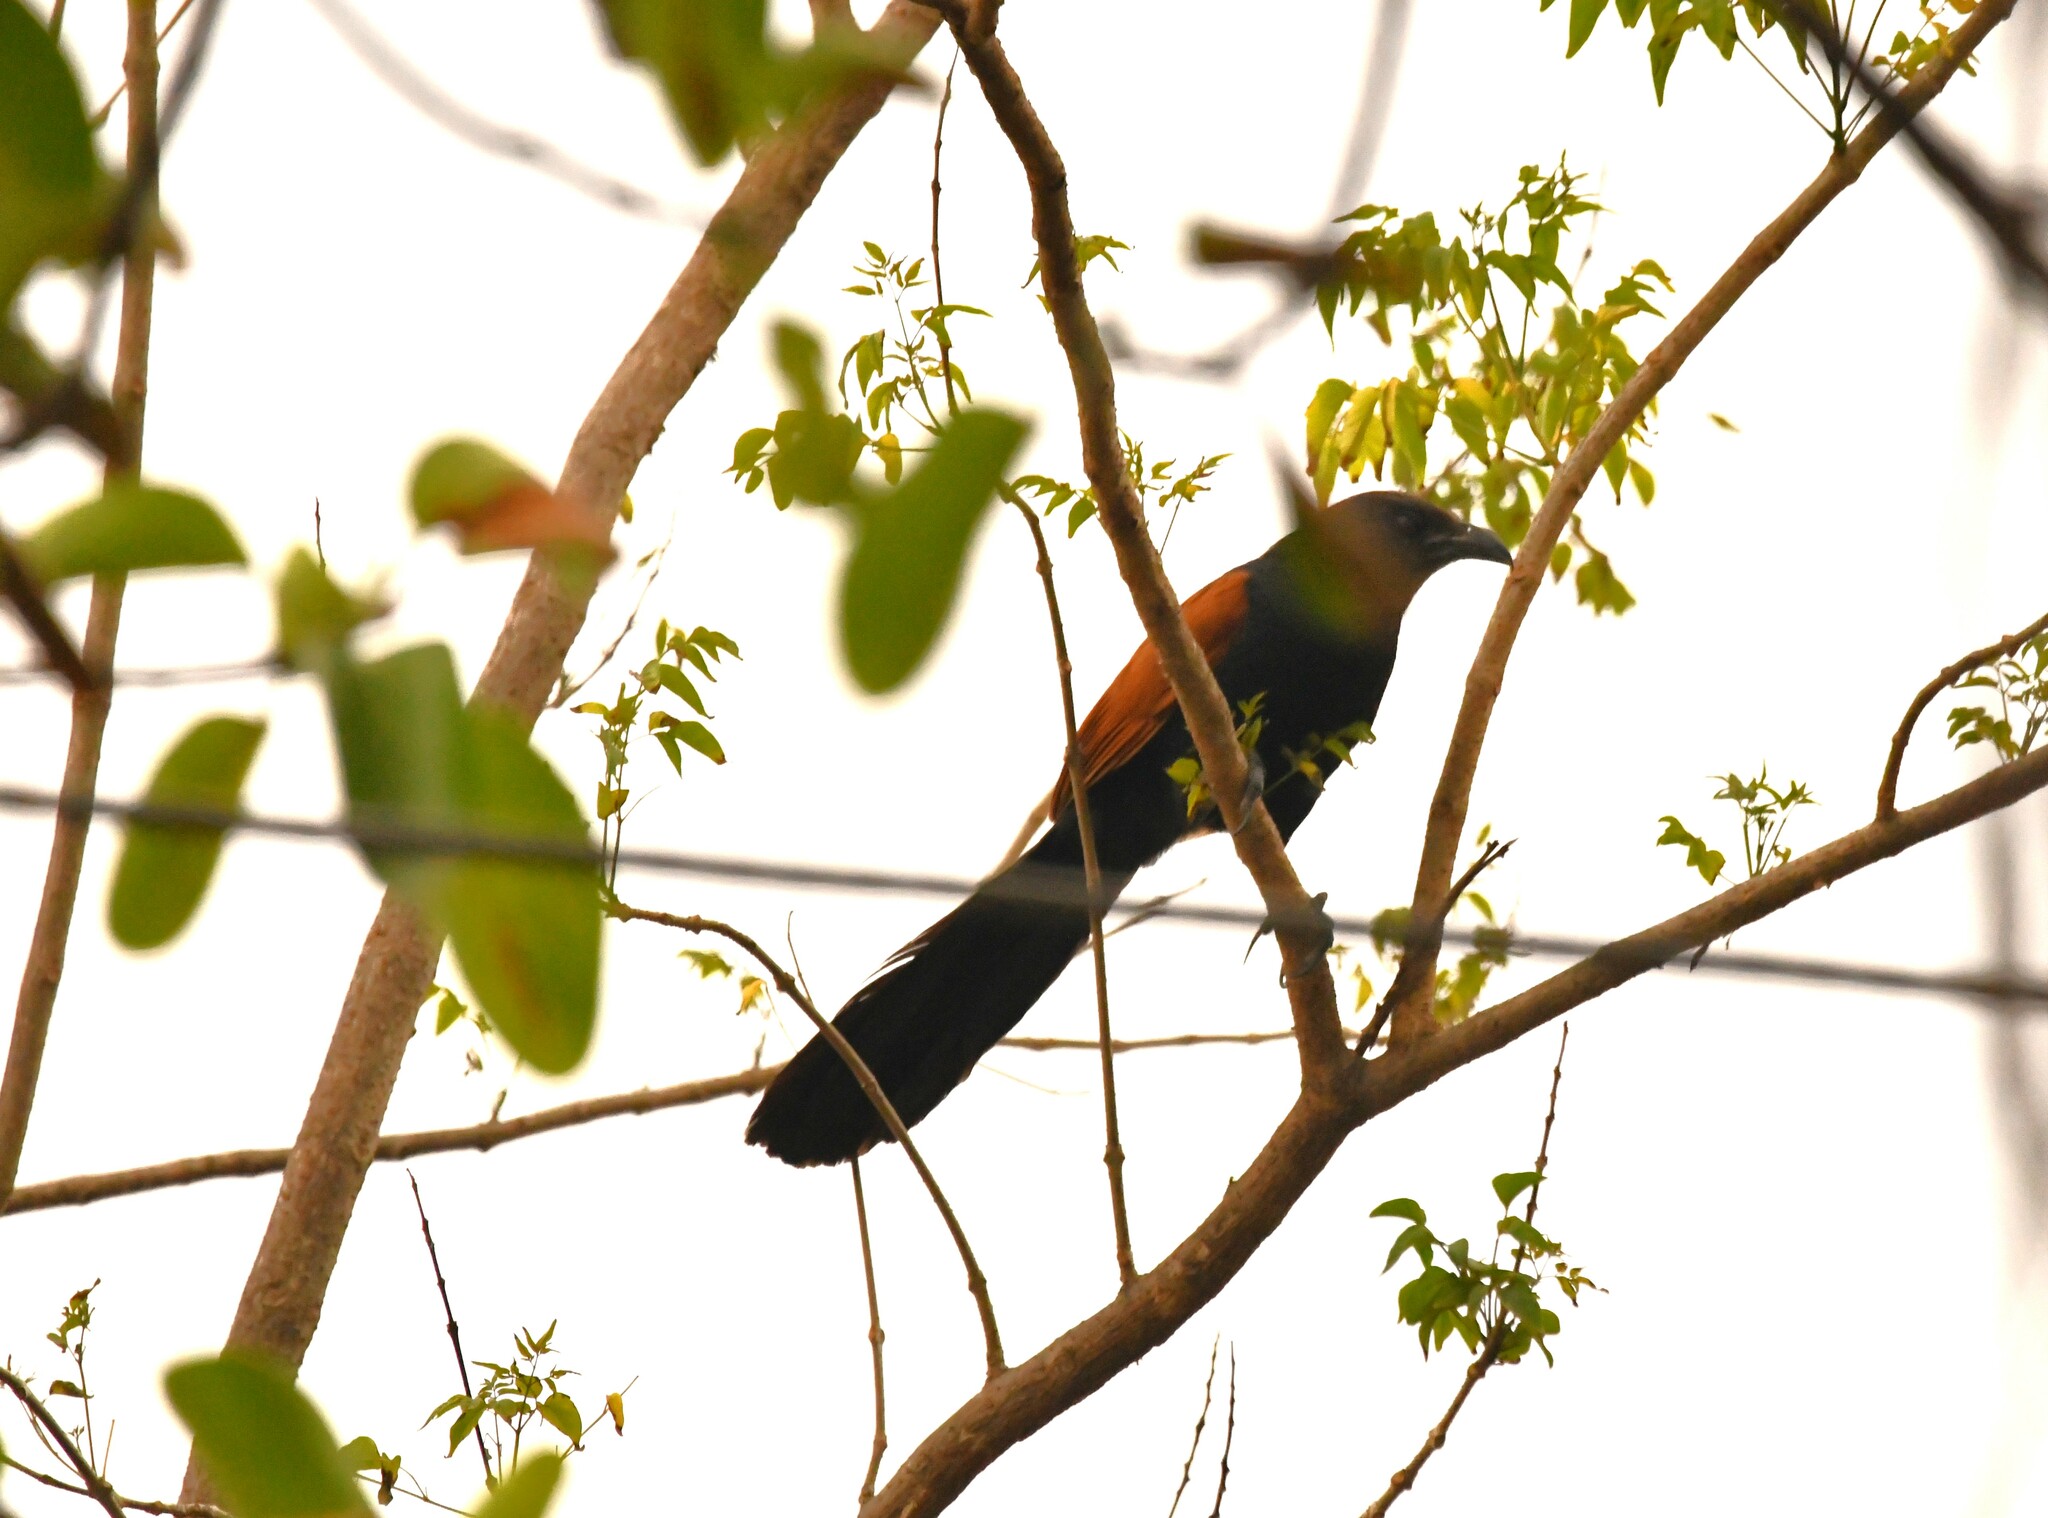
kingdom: Animalia
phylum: Chordata
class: Aves
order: Cuculiformes
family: Cuculidae
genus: Centropus
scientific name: Centropus sinensis
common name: Greater coucal
